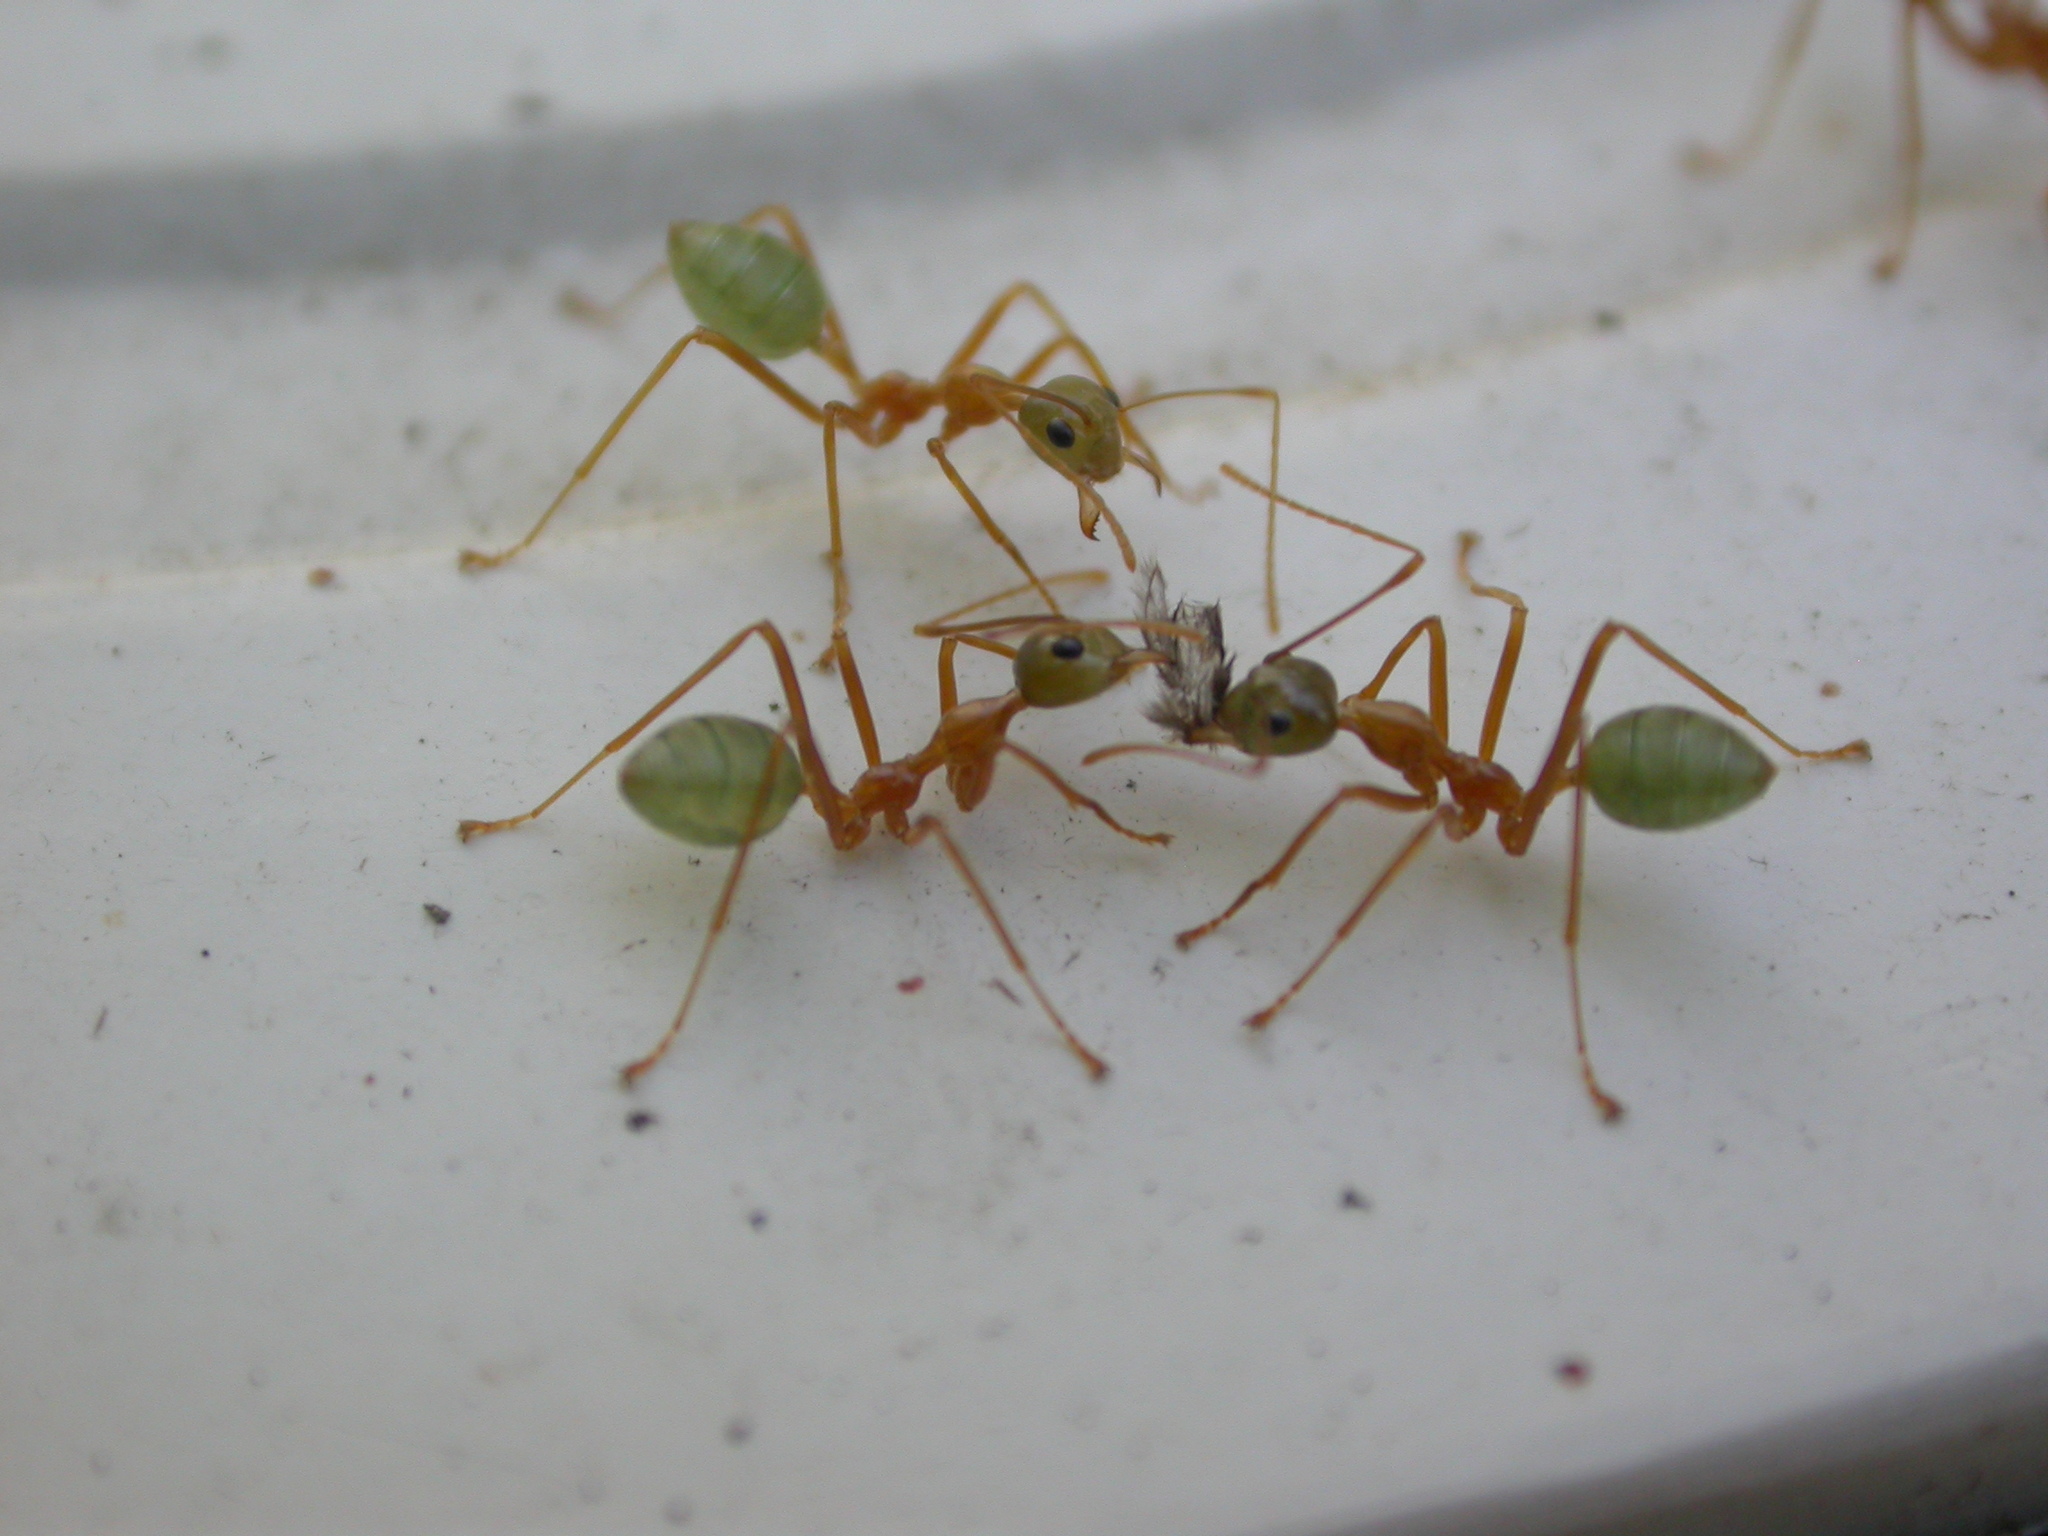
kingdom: Animalia
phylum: Arthropoda
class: Insecta
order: Hymenoptera
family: Formicidae
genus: Oecophylla
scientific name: Oecophylla smaragdina
